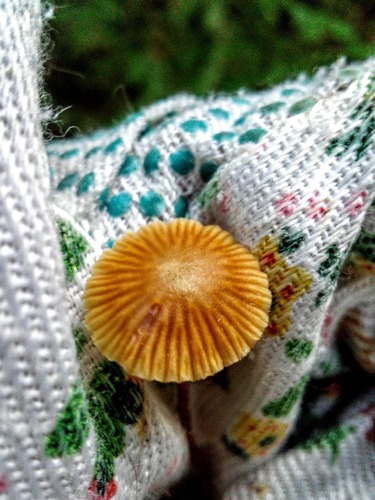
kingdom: Fungi
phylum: Basidiomycota
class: Agaricomycetes
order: Agaricales
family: Hymenogastraceae
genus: Galerina
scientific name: Galerina
